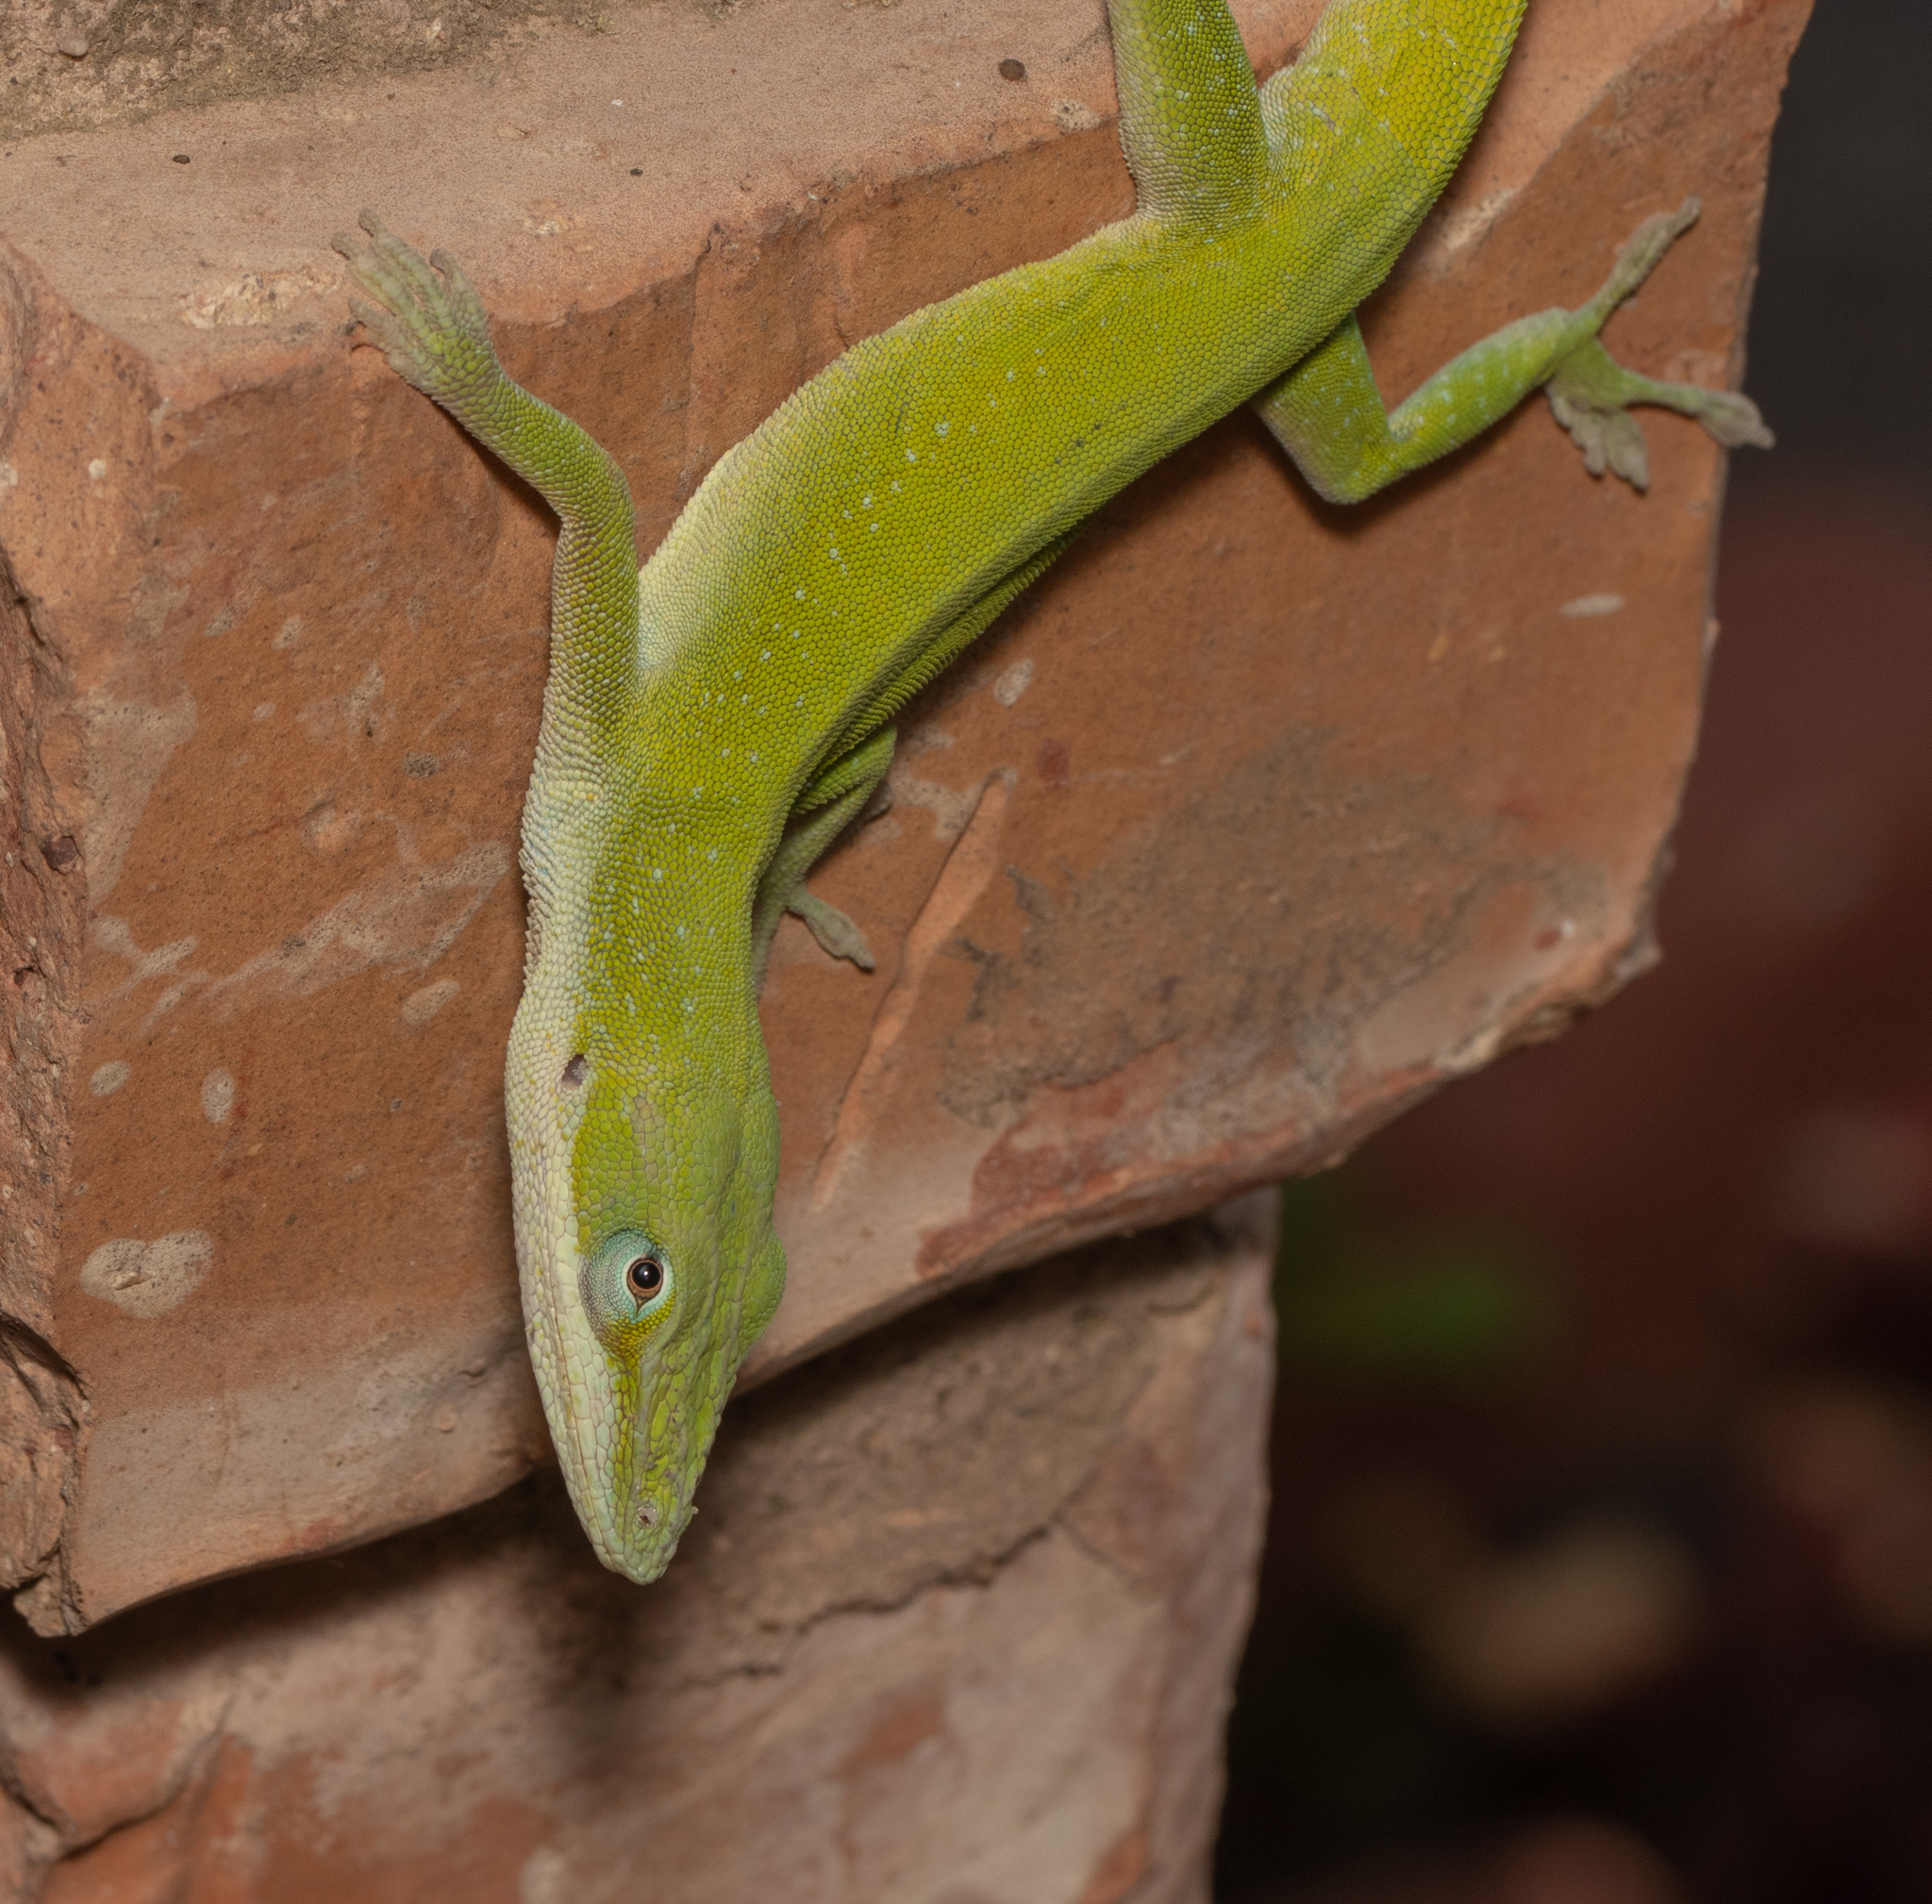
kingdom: Animalia
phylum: Chordata
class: Squamata
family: Dactyloidae
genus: Anolis
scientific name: Anolis carolinensis
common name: Green anole
